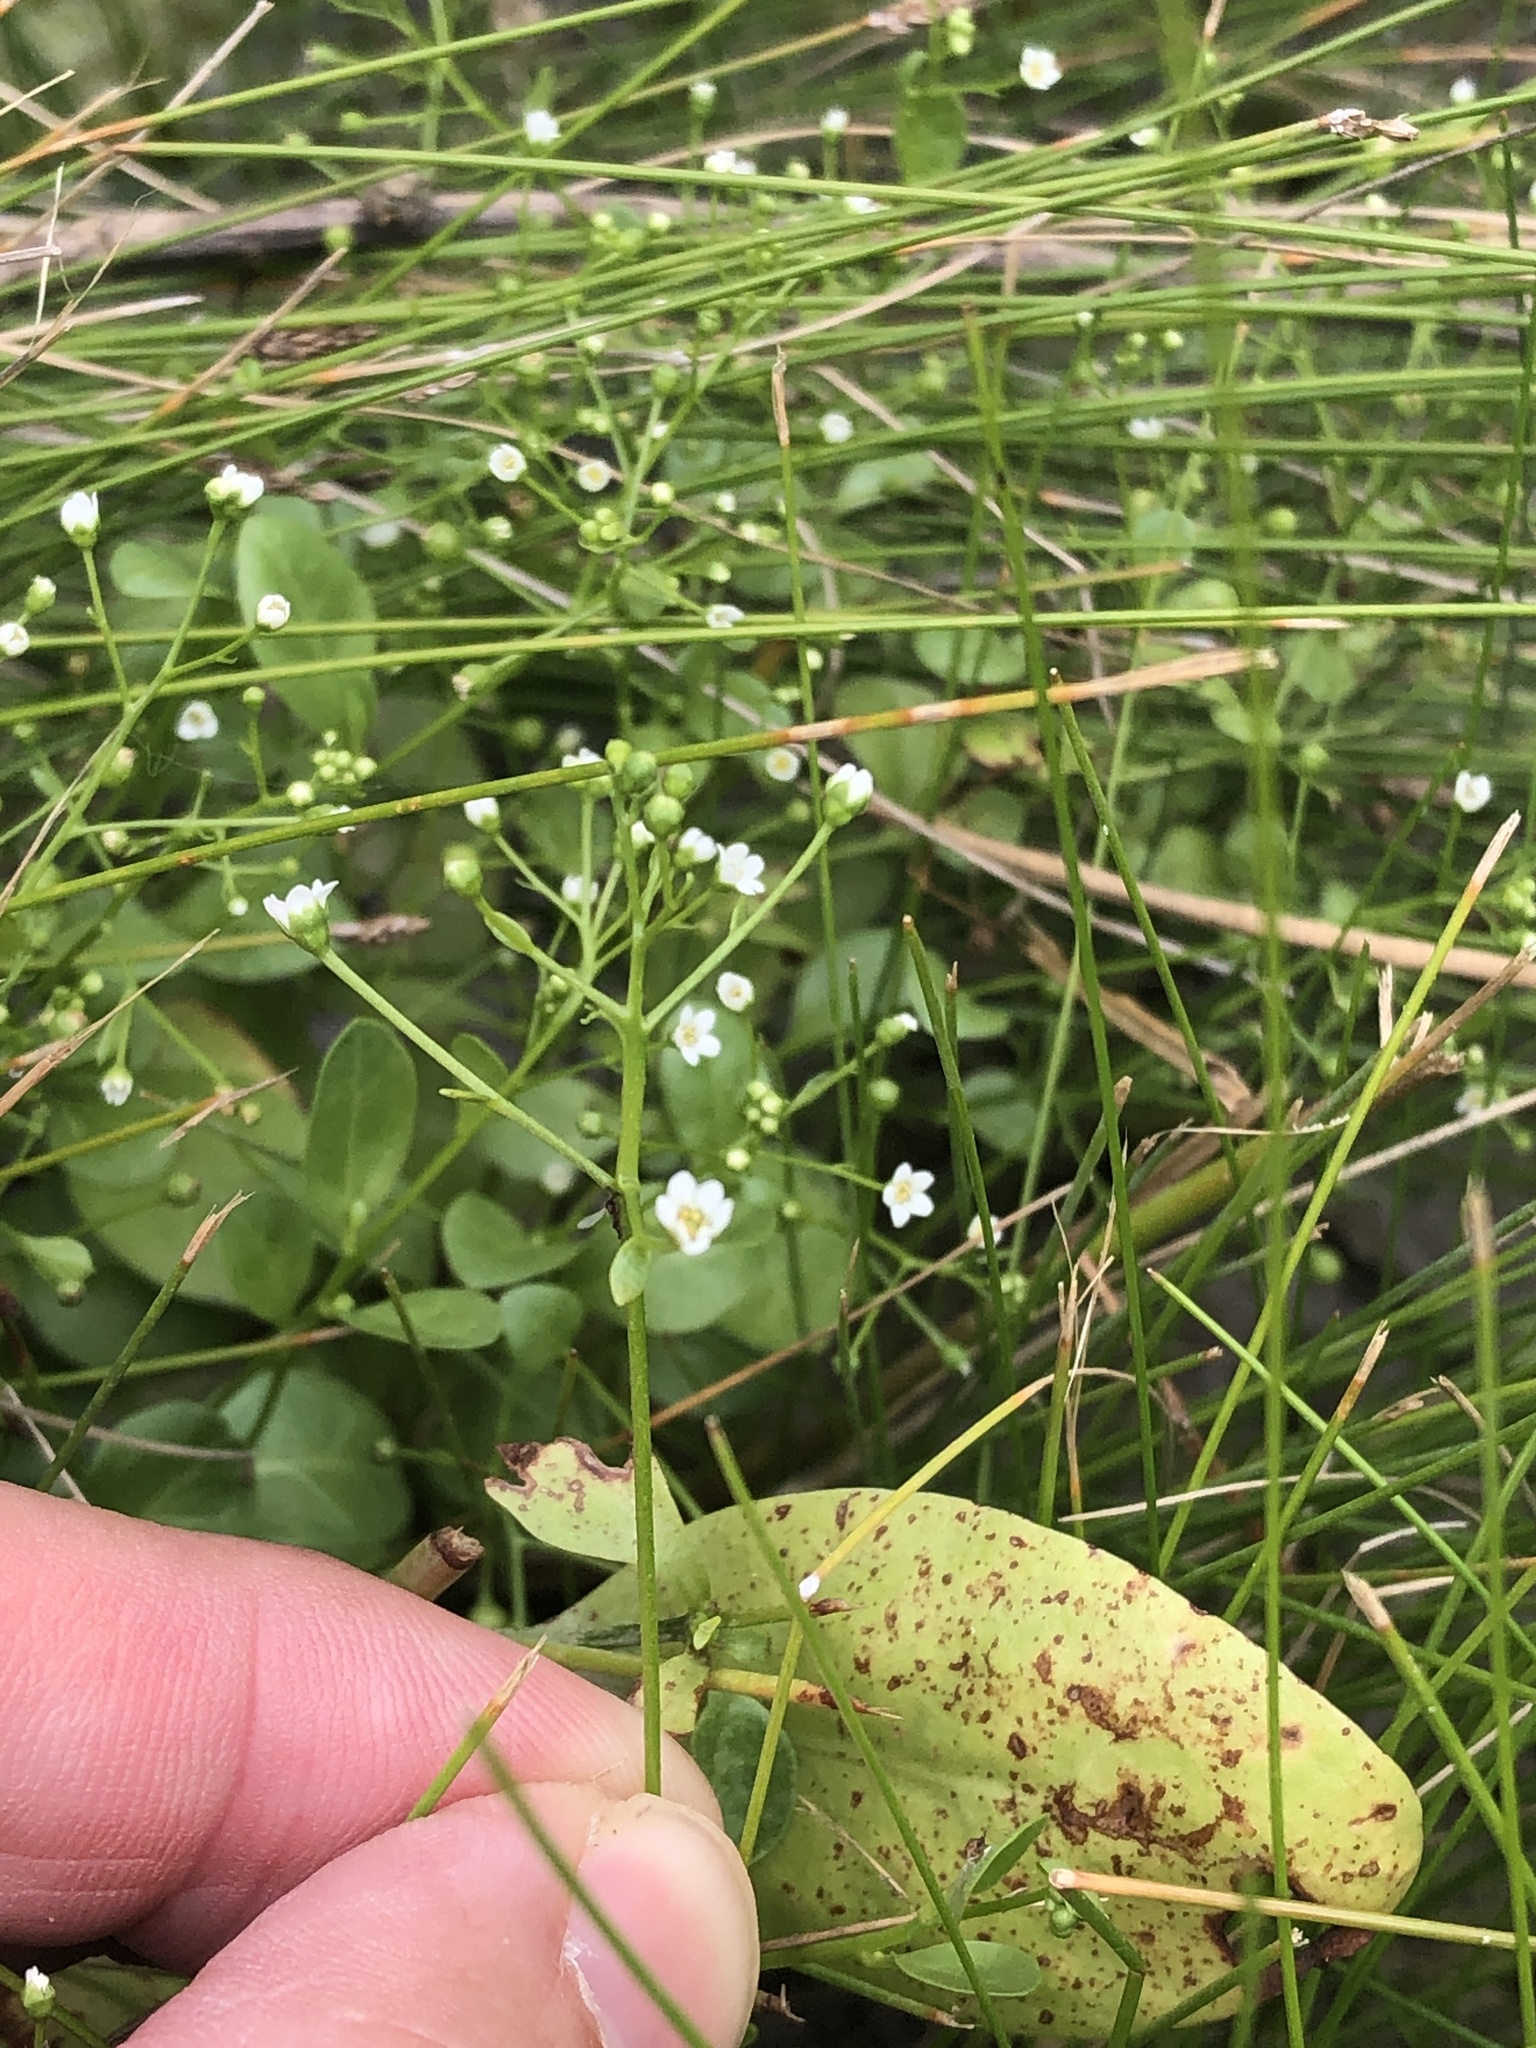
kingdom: Plantae
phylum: Tracheophyta
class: Magnoliopsida
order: Ericales
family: Primulaceae
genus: Samolus
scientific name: Samolus parviflorus
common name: False water pimpernel
